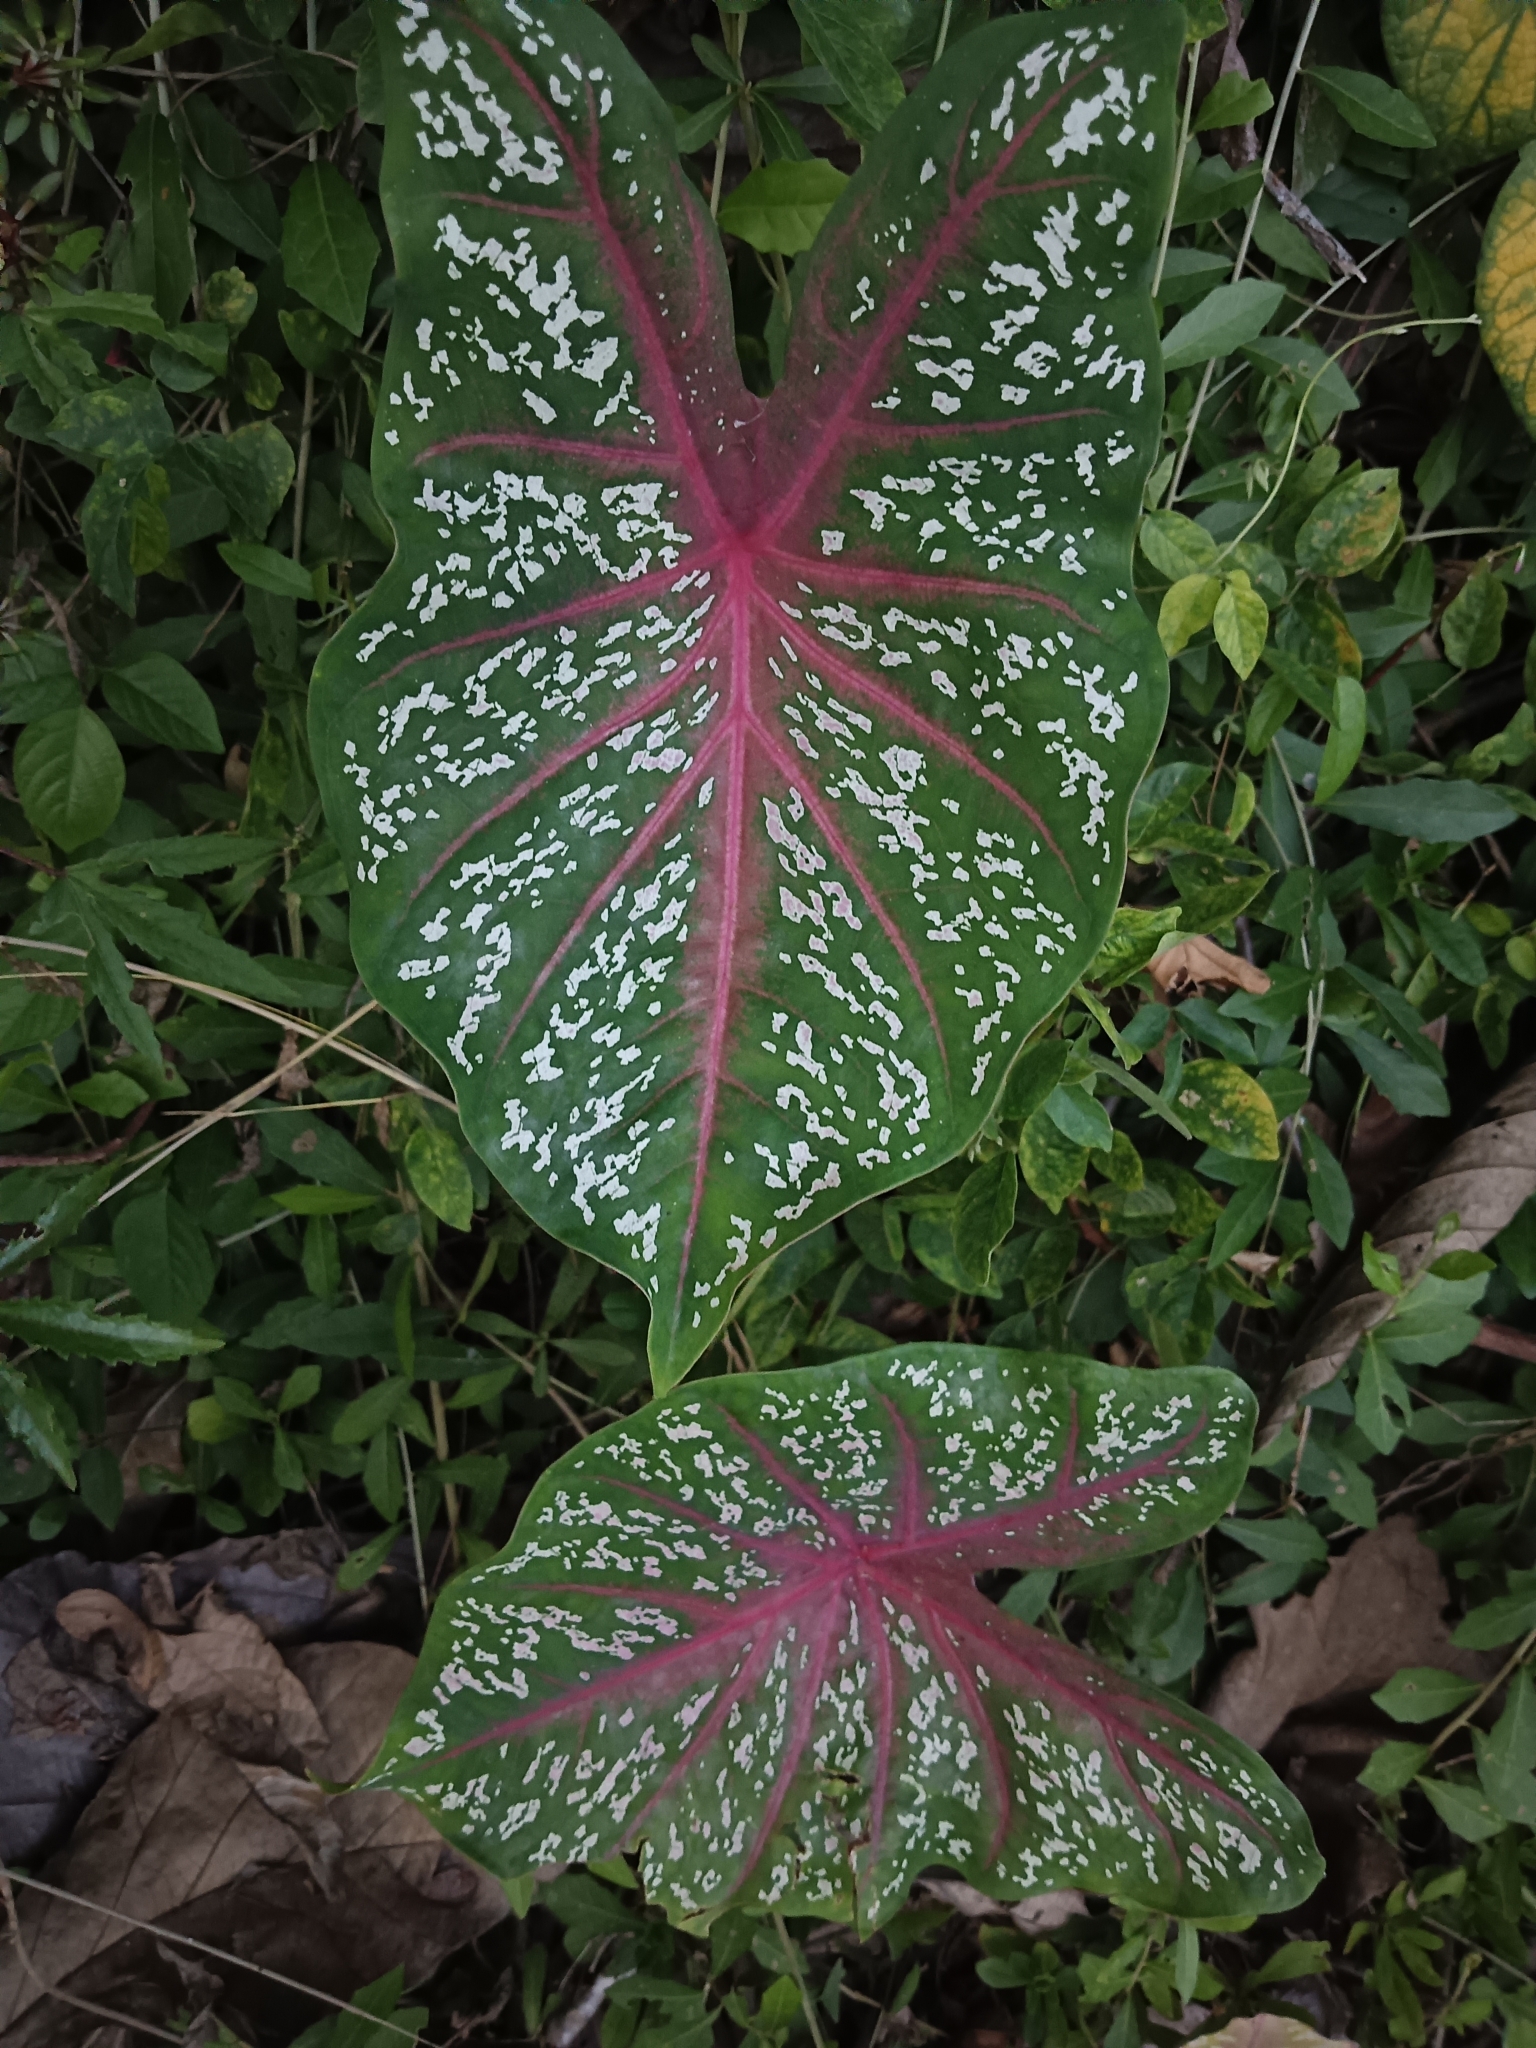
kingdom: Plantae
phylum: Tracheophyta
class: Liliopsida
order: Alismatales
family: Araceae
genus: Caladium
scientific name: Caladium bicolor
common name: Artist's pallet
